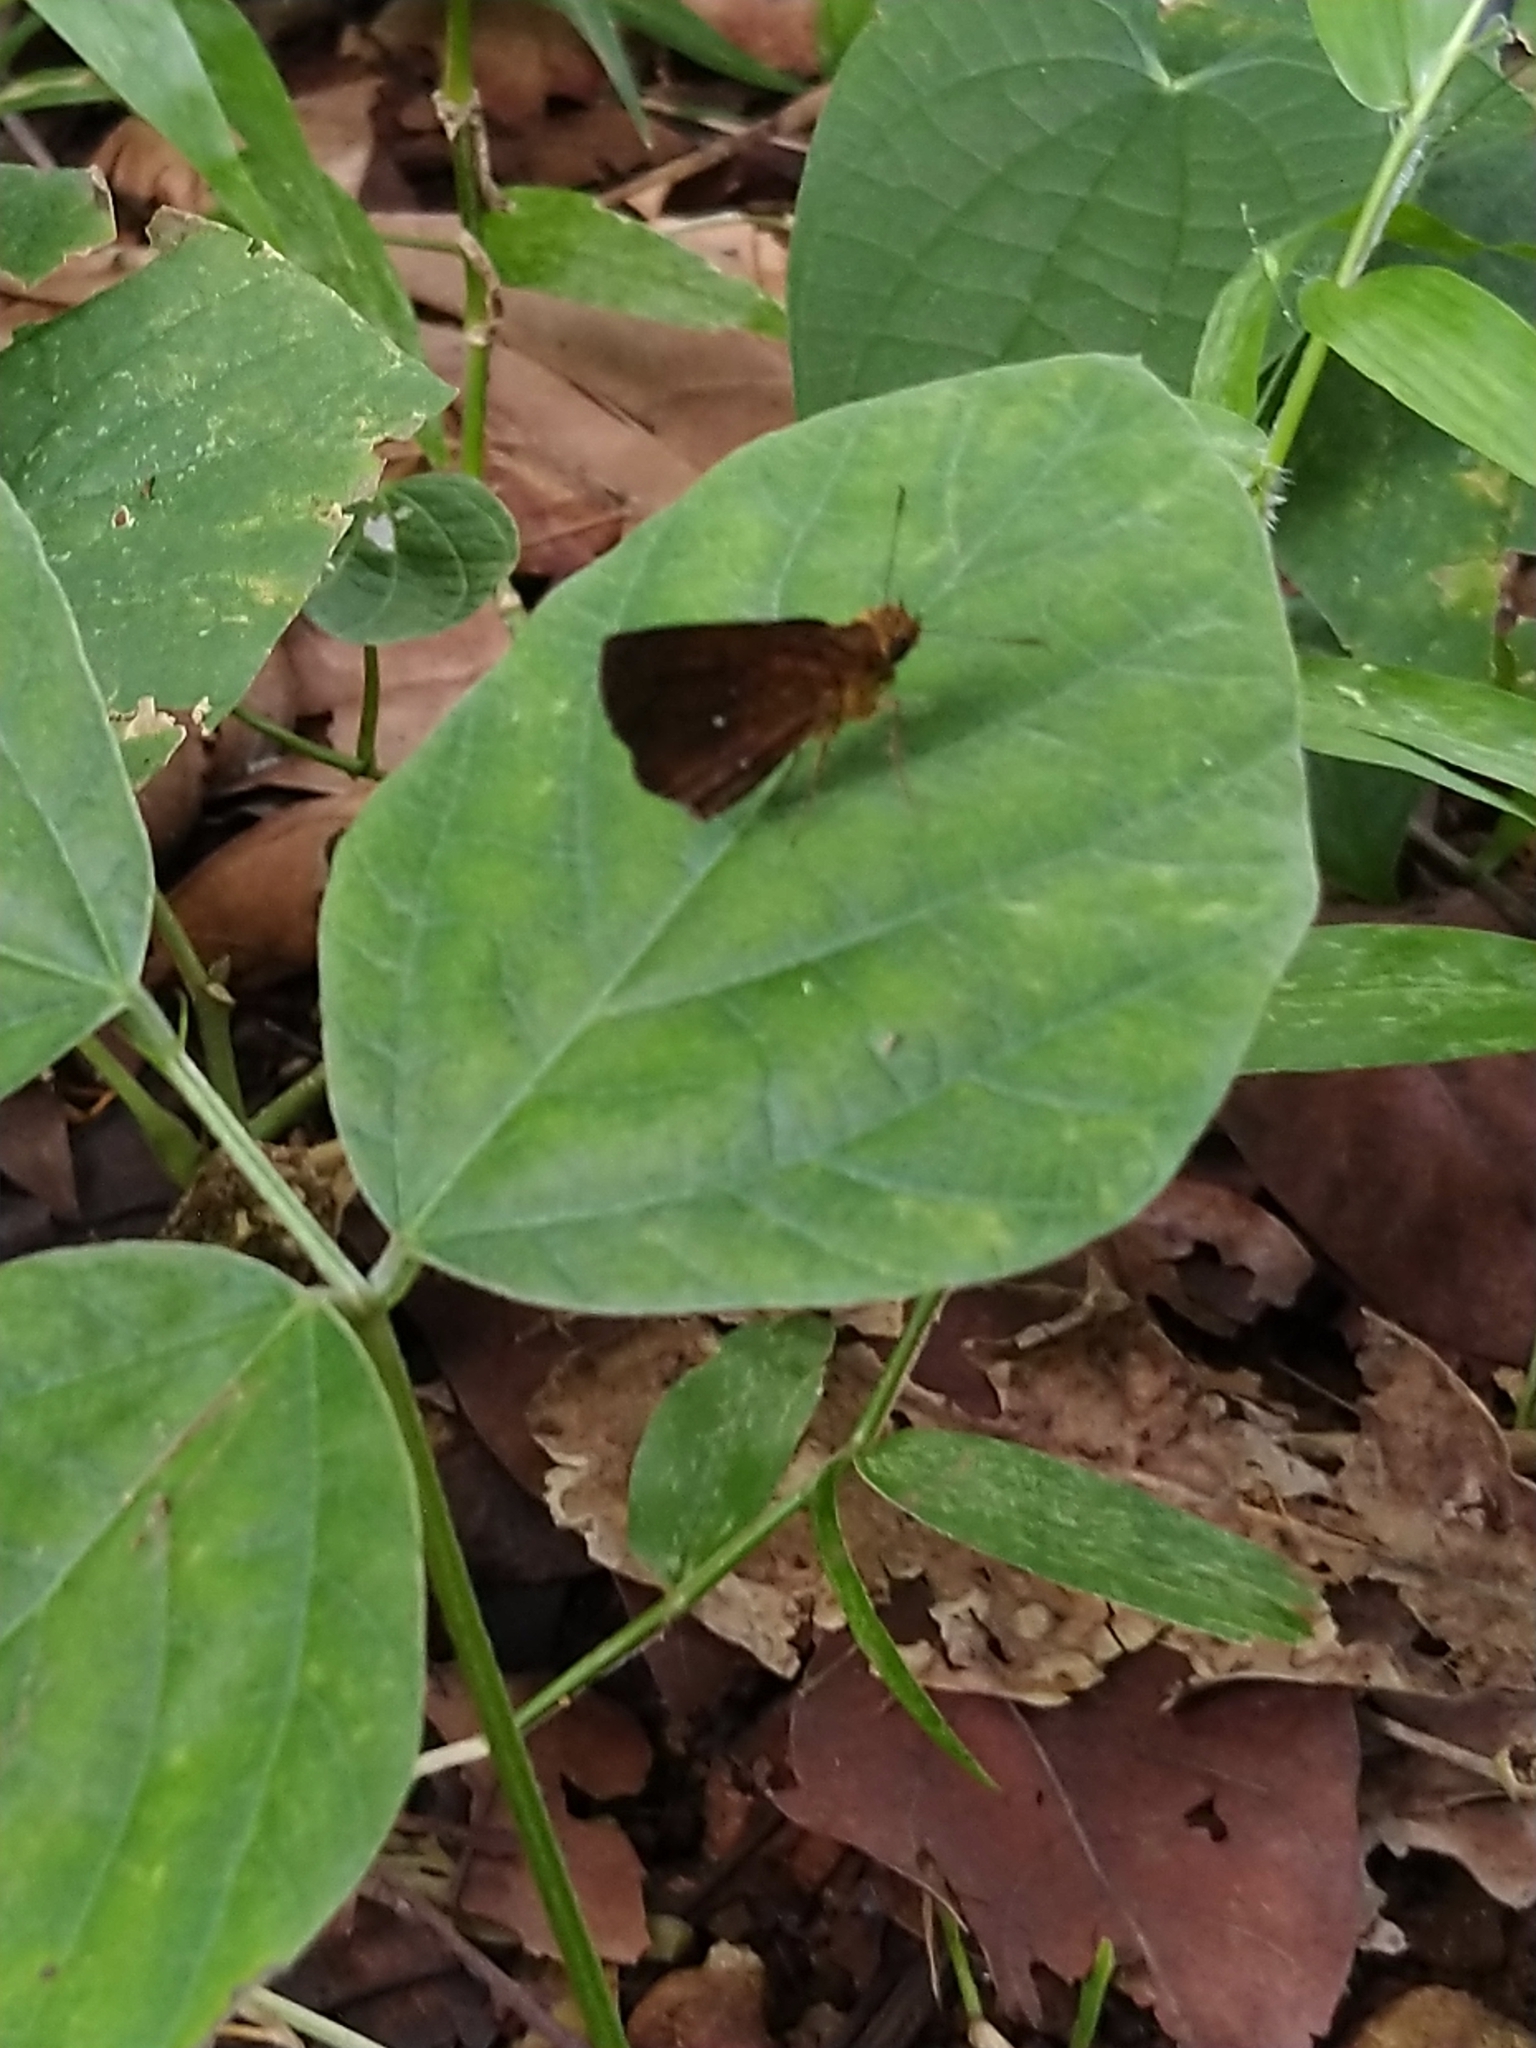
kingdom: Animalia
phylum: Arthropoda
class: Insecta
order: Lepidoptera
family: Hesperiidae
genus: Iambrix
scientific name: Iambrix salsala
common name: Chestnut bob
